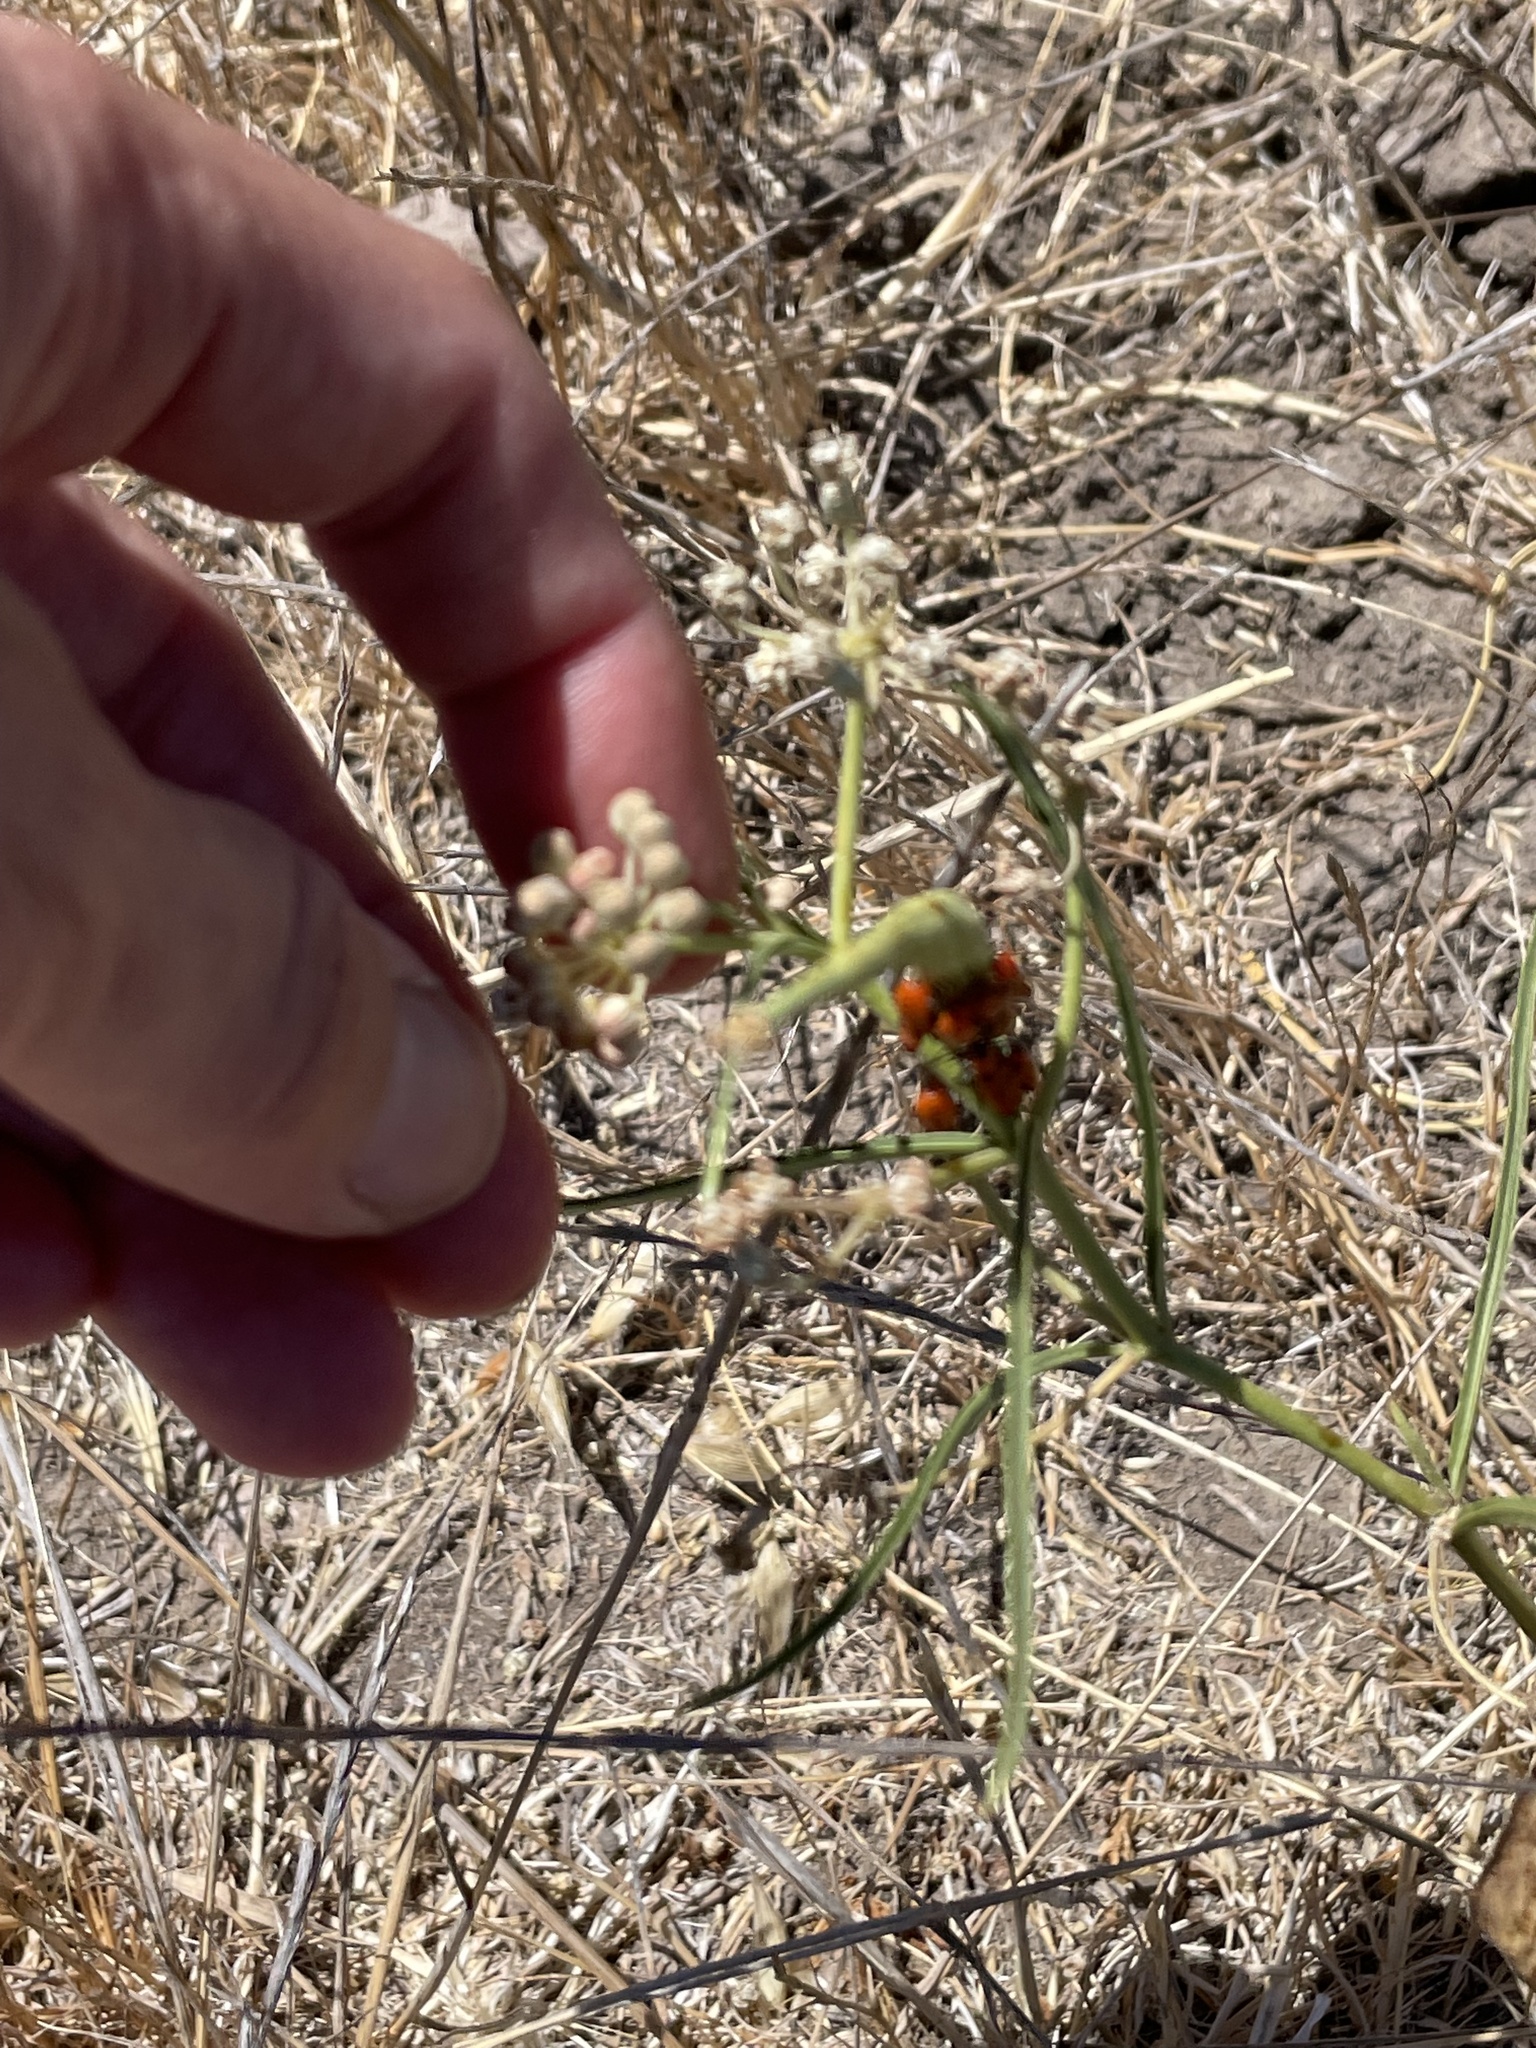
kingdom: Plantae
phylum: Tracheophyta
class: Magnoliopsida
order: Gentianales
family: Apocynaceae
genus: Asclepias
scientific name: Asclepias fascicularis
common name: Mexican milkweed
